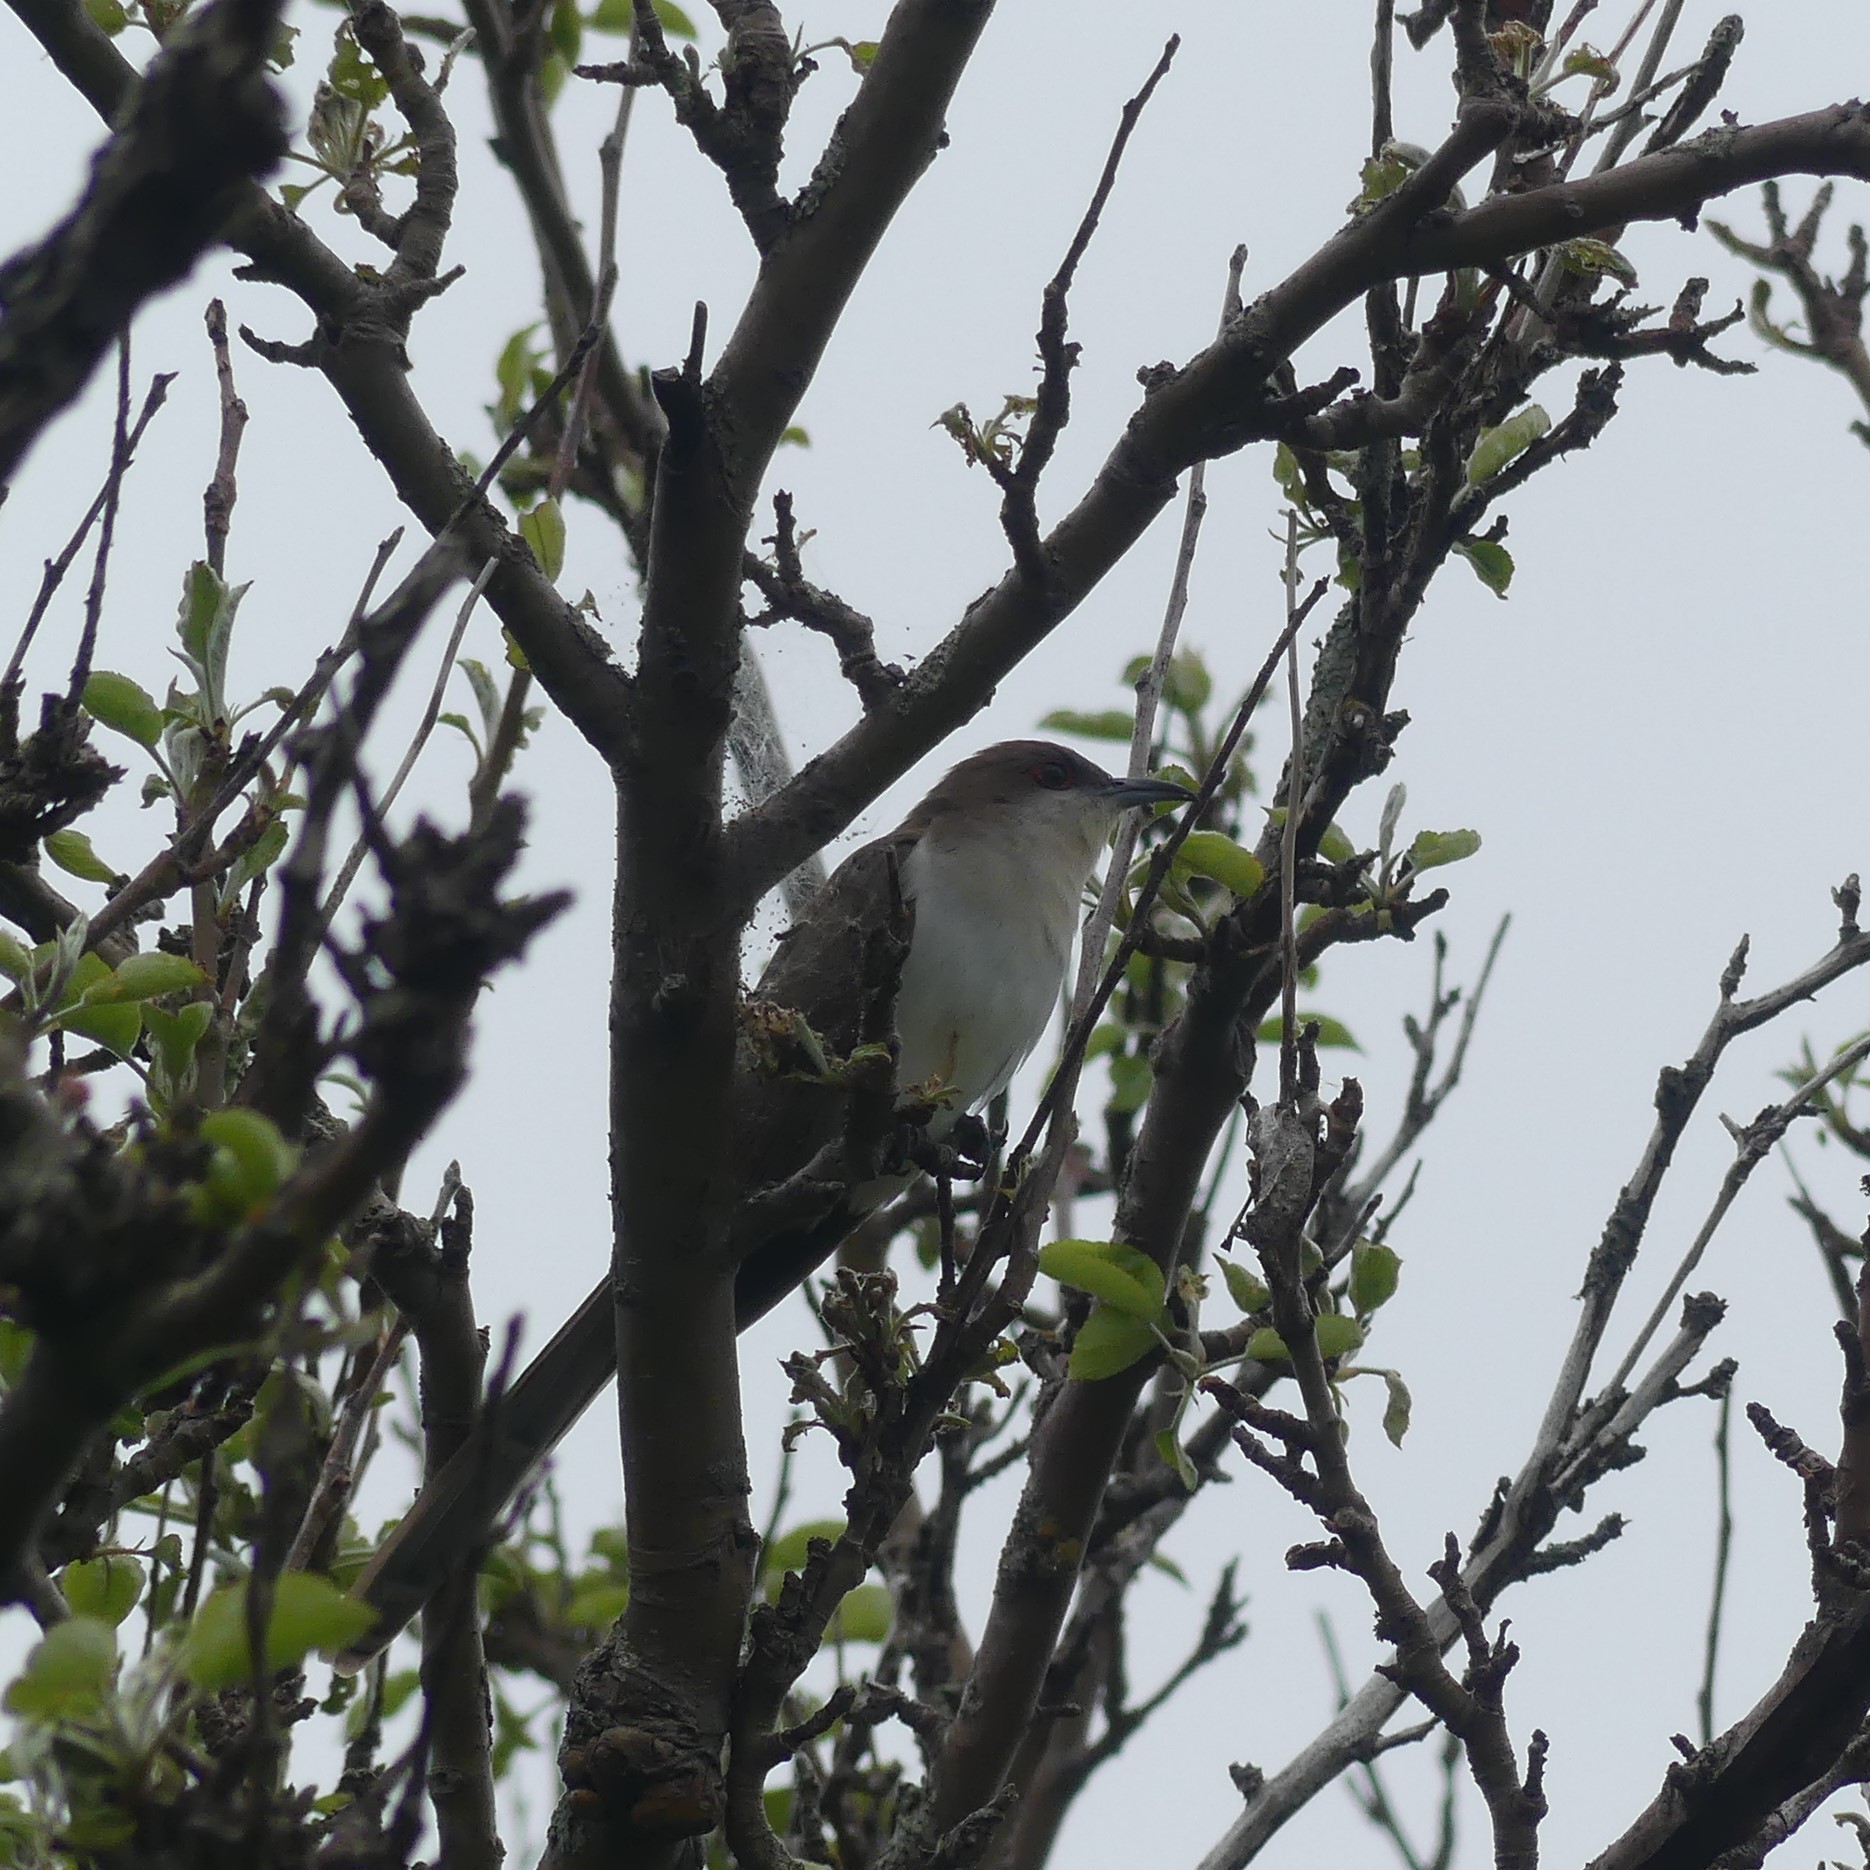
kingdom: Animalia
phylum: Chordata
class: Aves
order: Cuculiformes
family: Cuculidae
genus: Coccyzus
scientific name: Coccyzus erythropthalmus
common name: Black-billed cuckoo
